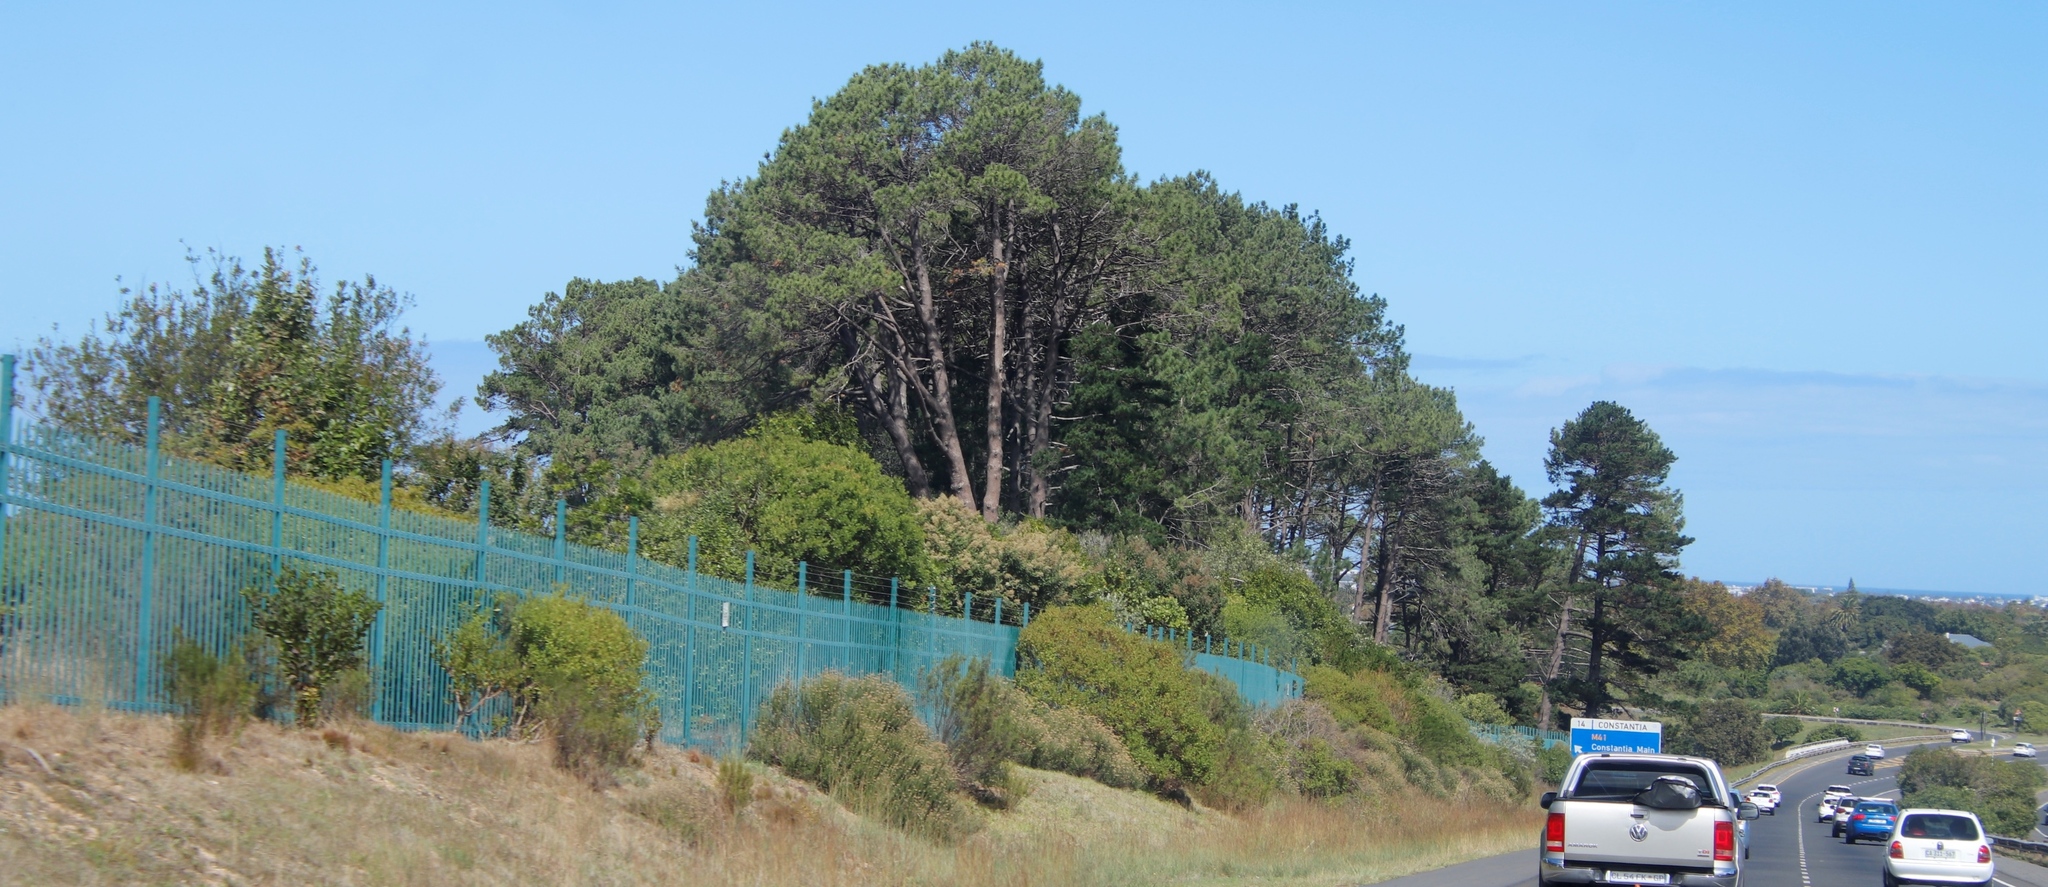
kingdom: Plantae
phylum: Tracheophyta
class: Pinopsida
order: Pinales
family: Pinaceae
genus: Pinus
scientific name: Pinus pinaster
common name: Maritime pine
